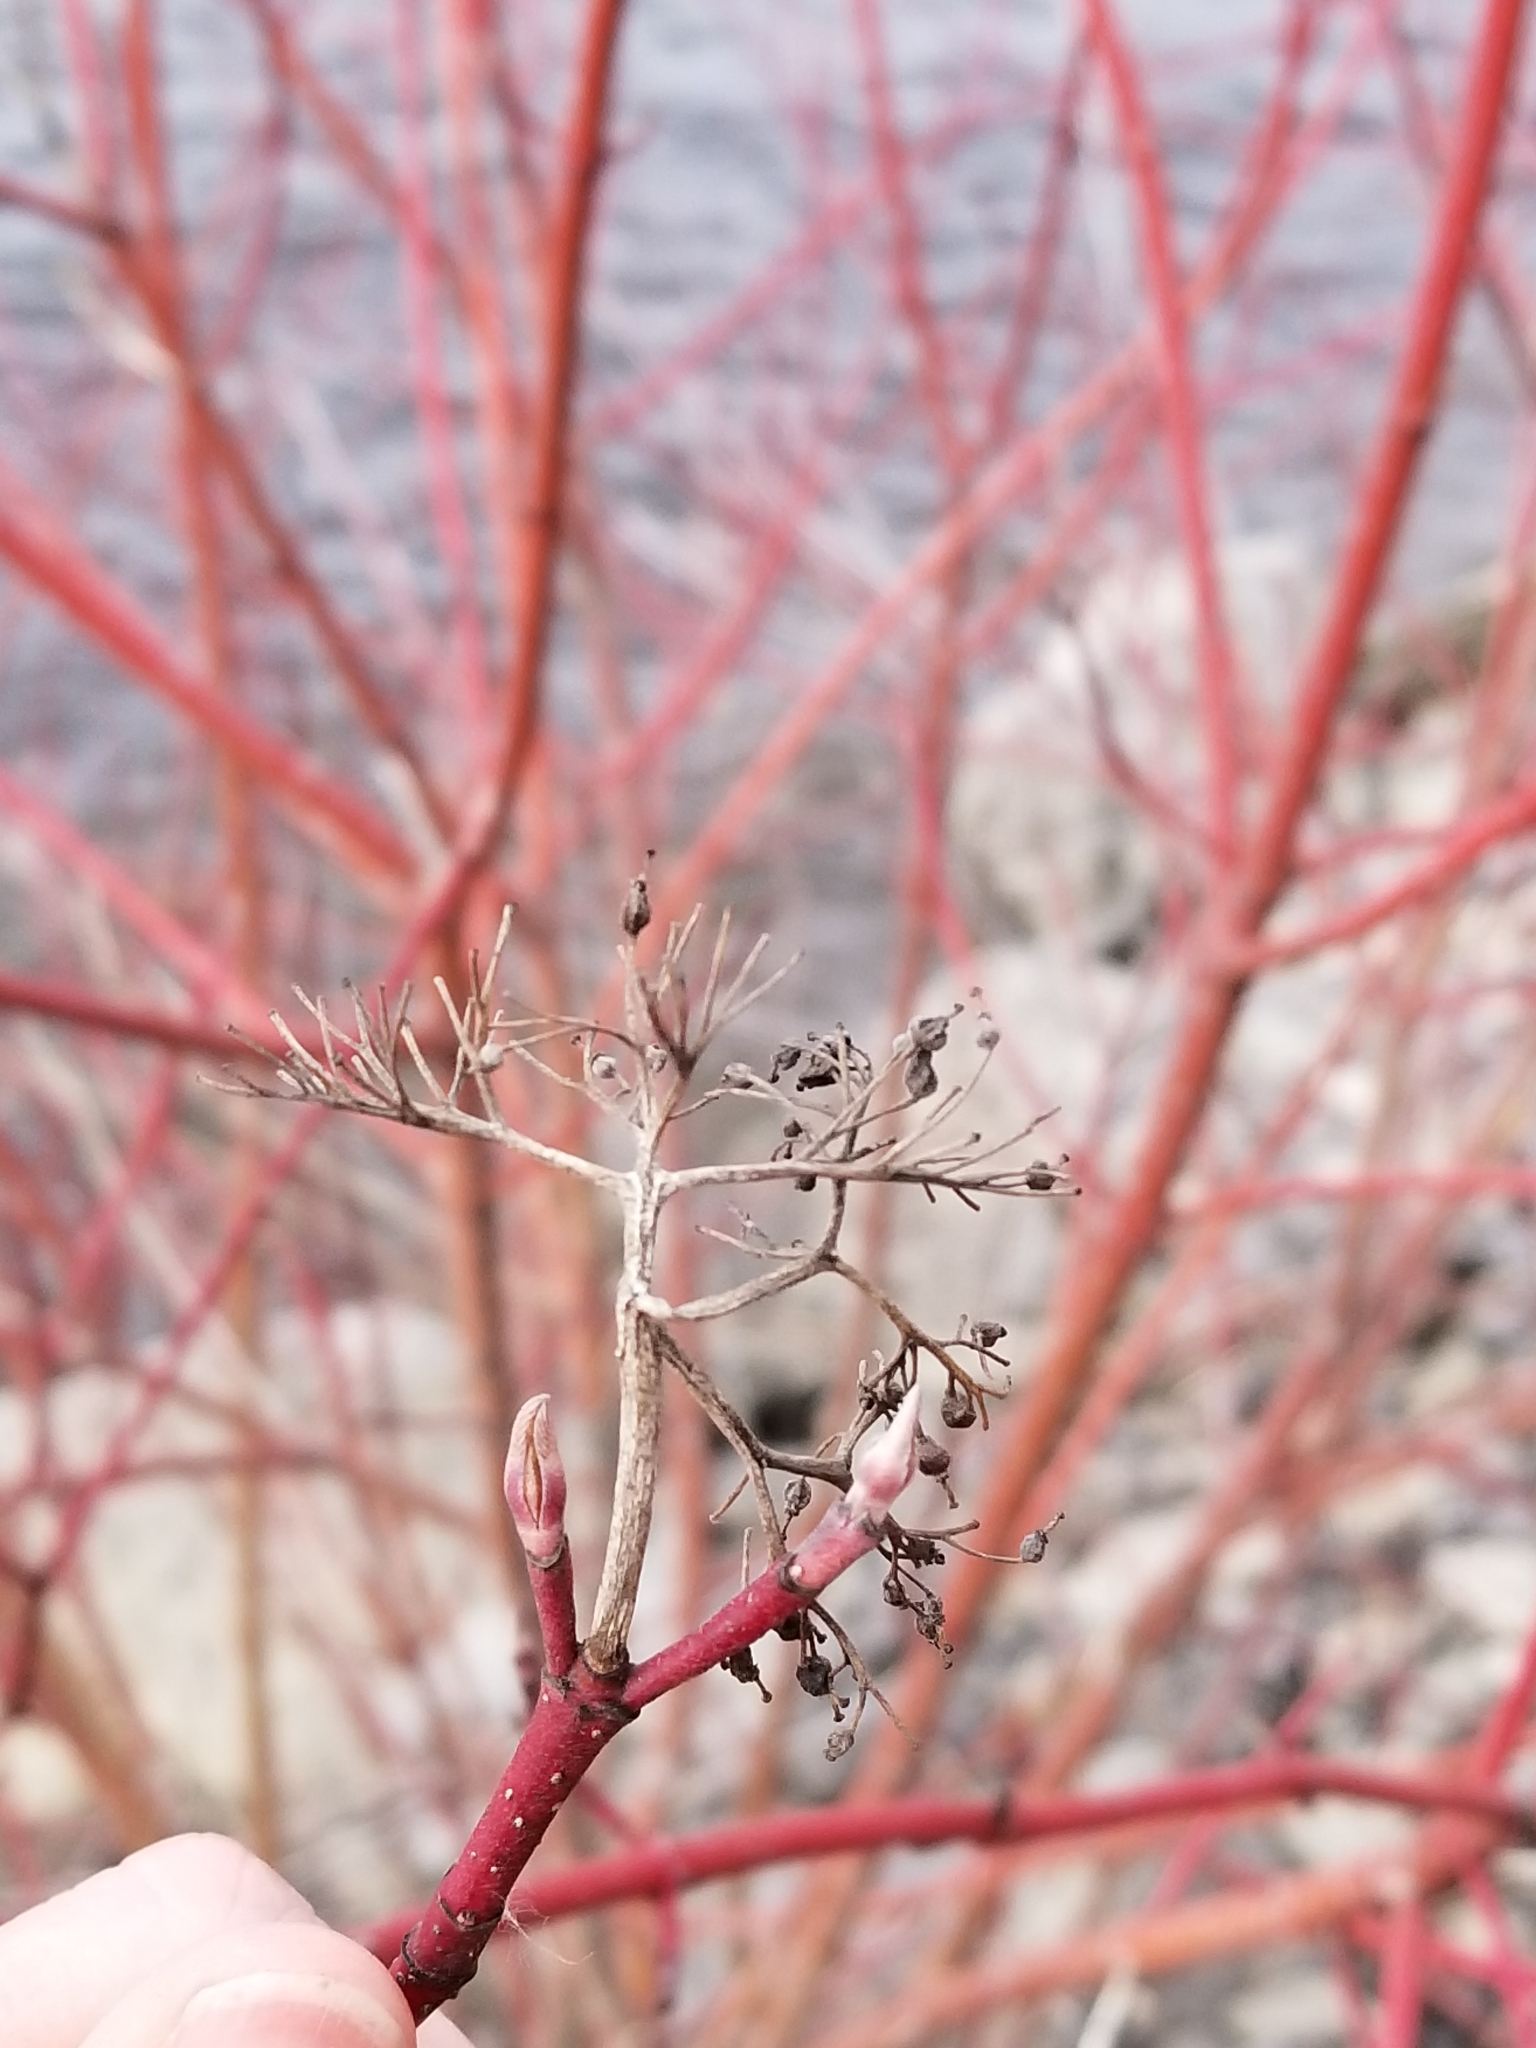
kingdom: Plantae
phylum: Tracheophyta
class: Magnoliopsida
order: Cornales
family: Cornaceae
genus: Cornus
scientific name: Cornus sericea
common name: Red-osier dogwood
